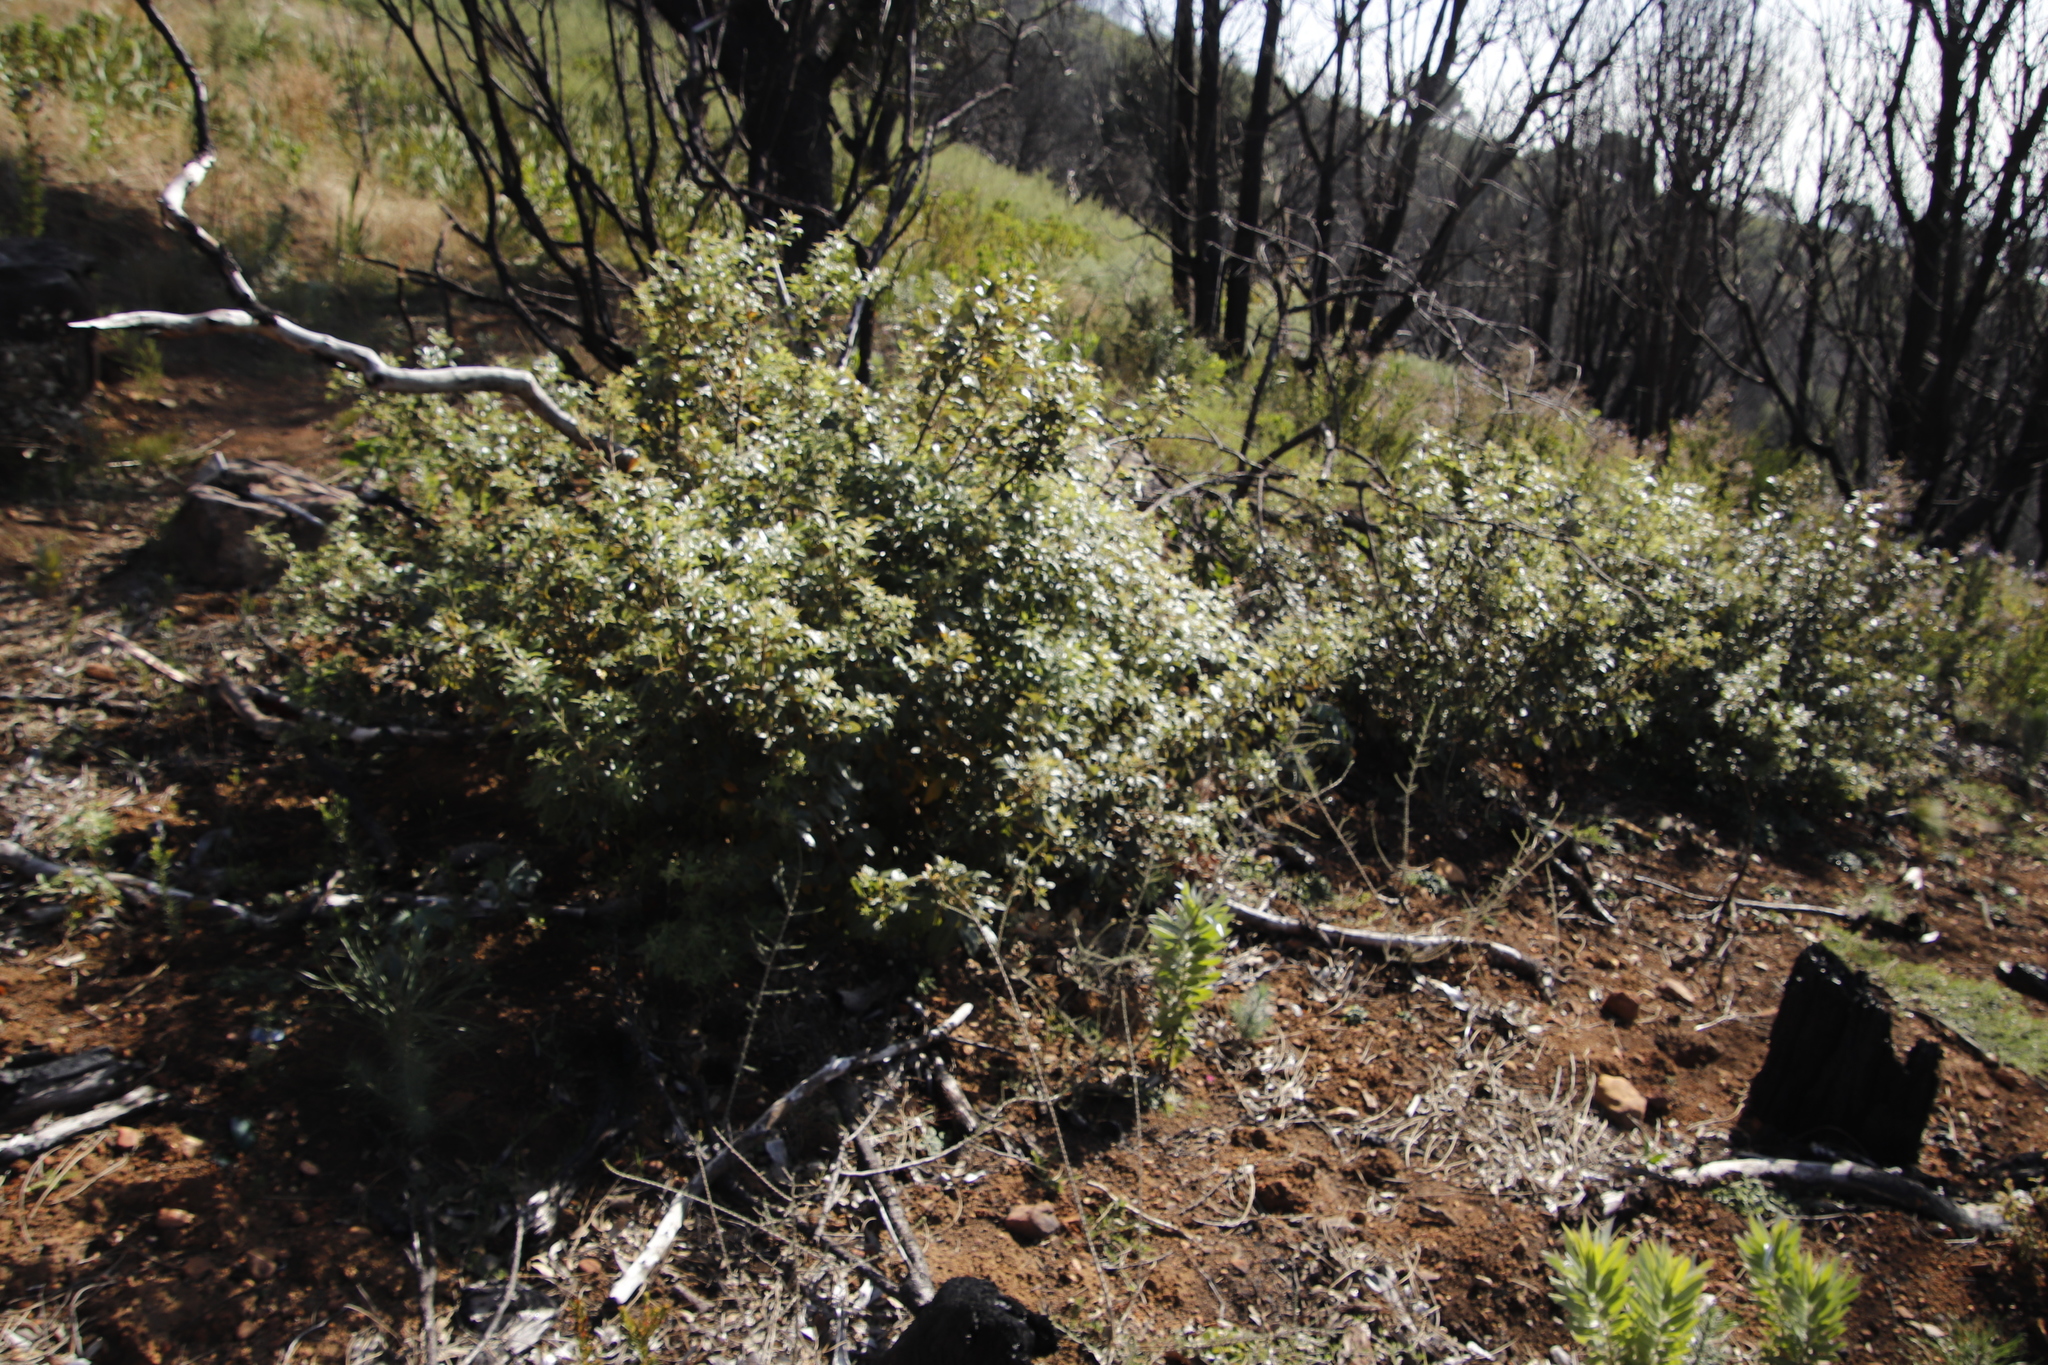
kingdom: Plantae
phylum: Tracheophyta
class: Magnoliopsida
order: Sapindales
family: Anacardiaceae
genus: Searsia
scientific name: Searsia tomentosa
